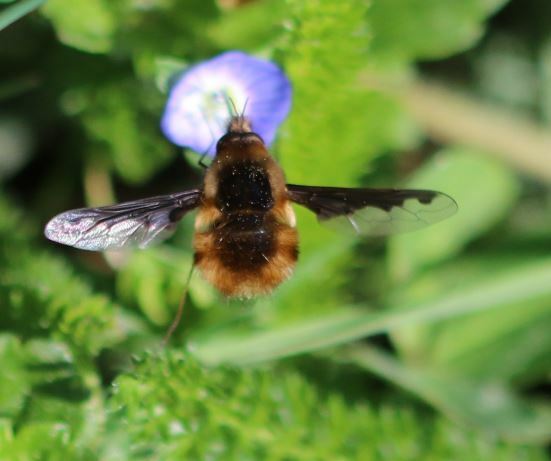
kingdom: Animalia
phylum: Arthropoda
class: Insecta
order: Diptera
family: Bombyliidae
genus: Bombylius
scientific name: Bombylius major
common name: Bee fly
